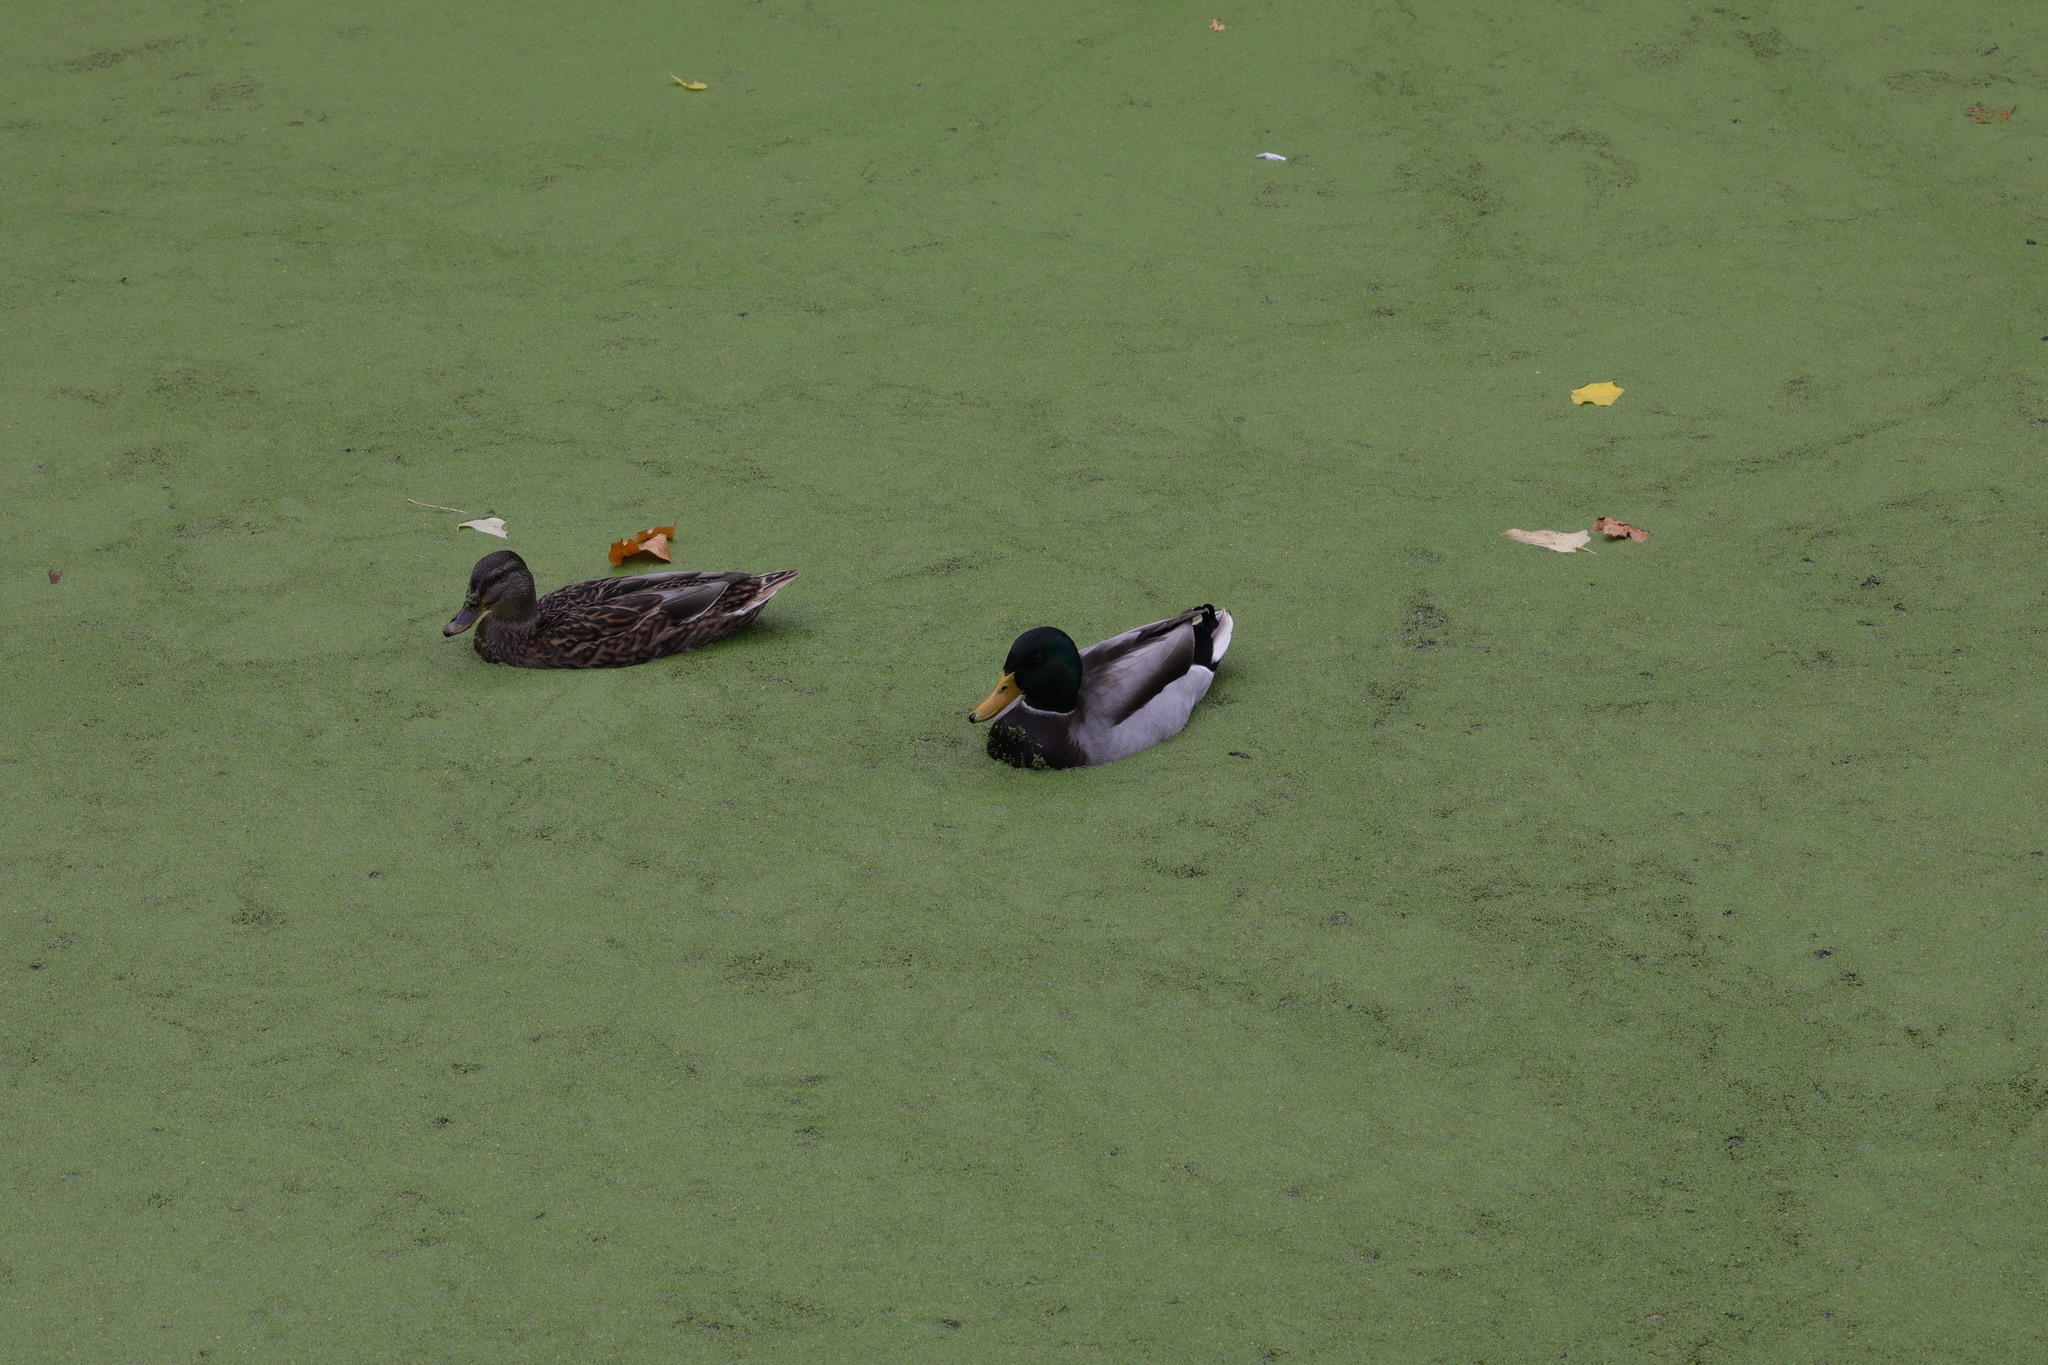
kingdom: Animalia
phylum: Chordata
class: Aves
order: Anseriformes
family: Anatidae
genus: Anas
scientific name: Anas platyrhynchos
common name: Mallard
